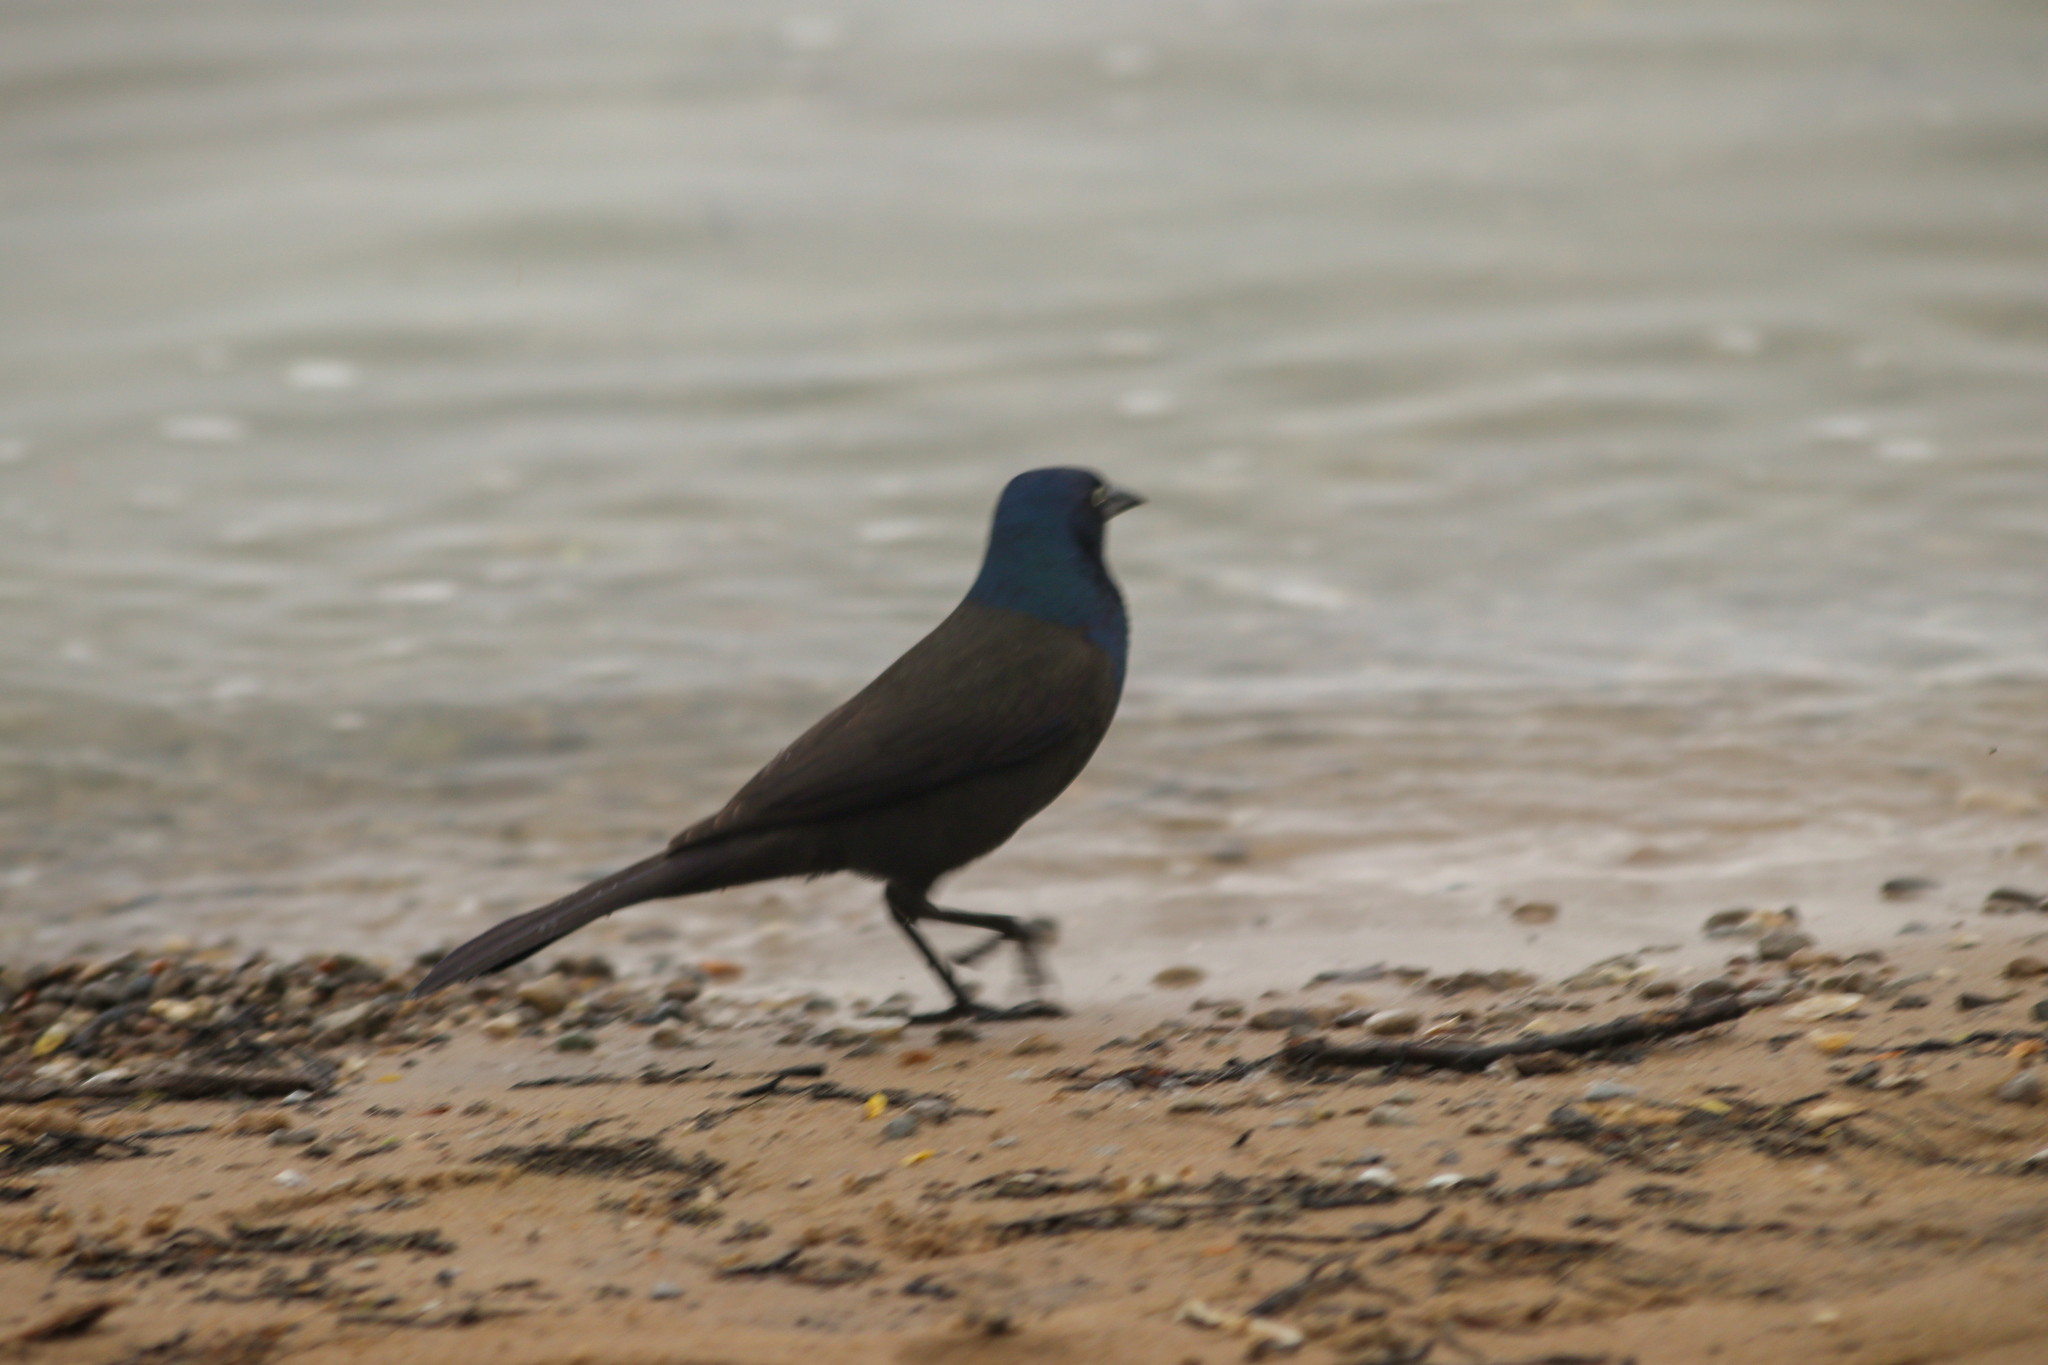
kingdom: Animalia
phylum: Chordata
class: Aves
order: Passeriformes
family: Icteridae
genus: Quiscalus
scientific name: Quiscalus quiscula
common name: Common grackle
